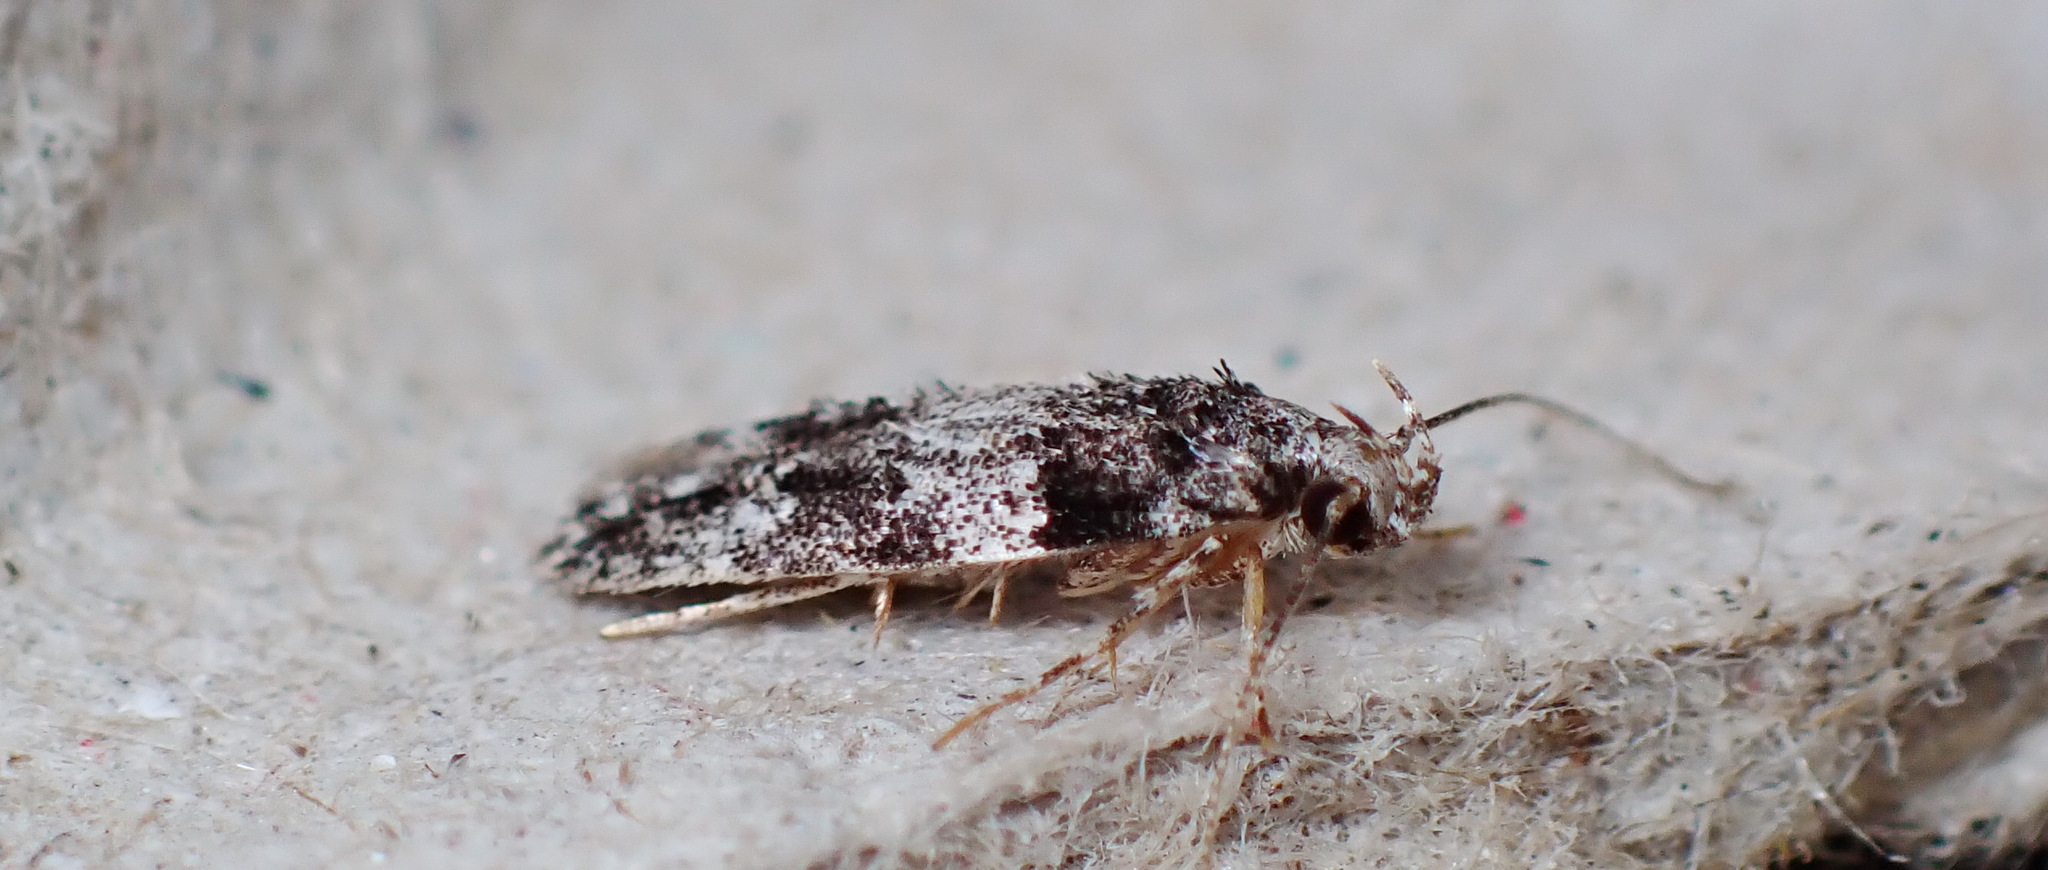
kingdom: Animalia
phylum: Arthropoda
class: Insecta
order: Lepidoptera
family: Gelechiidae
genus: Pubitelphusa
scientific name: Pubitelphusa latifasciella
